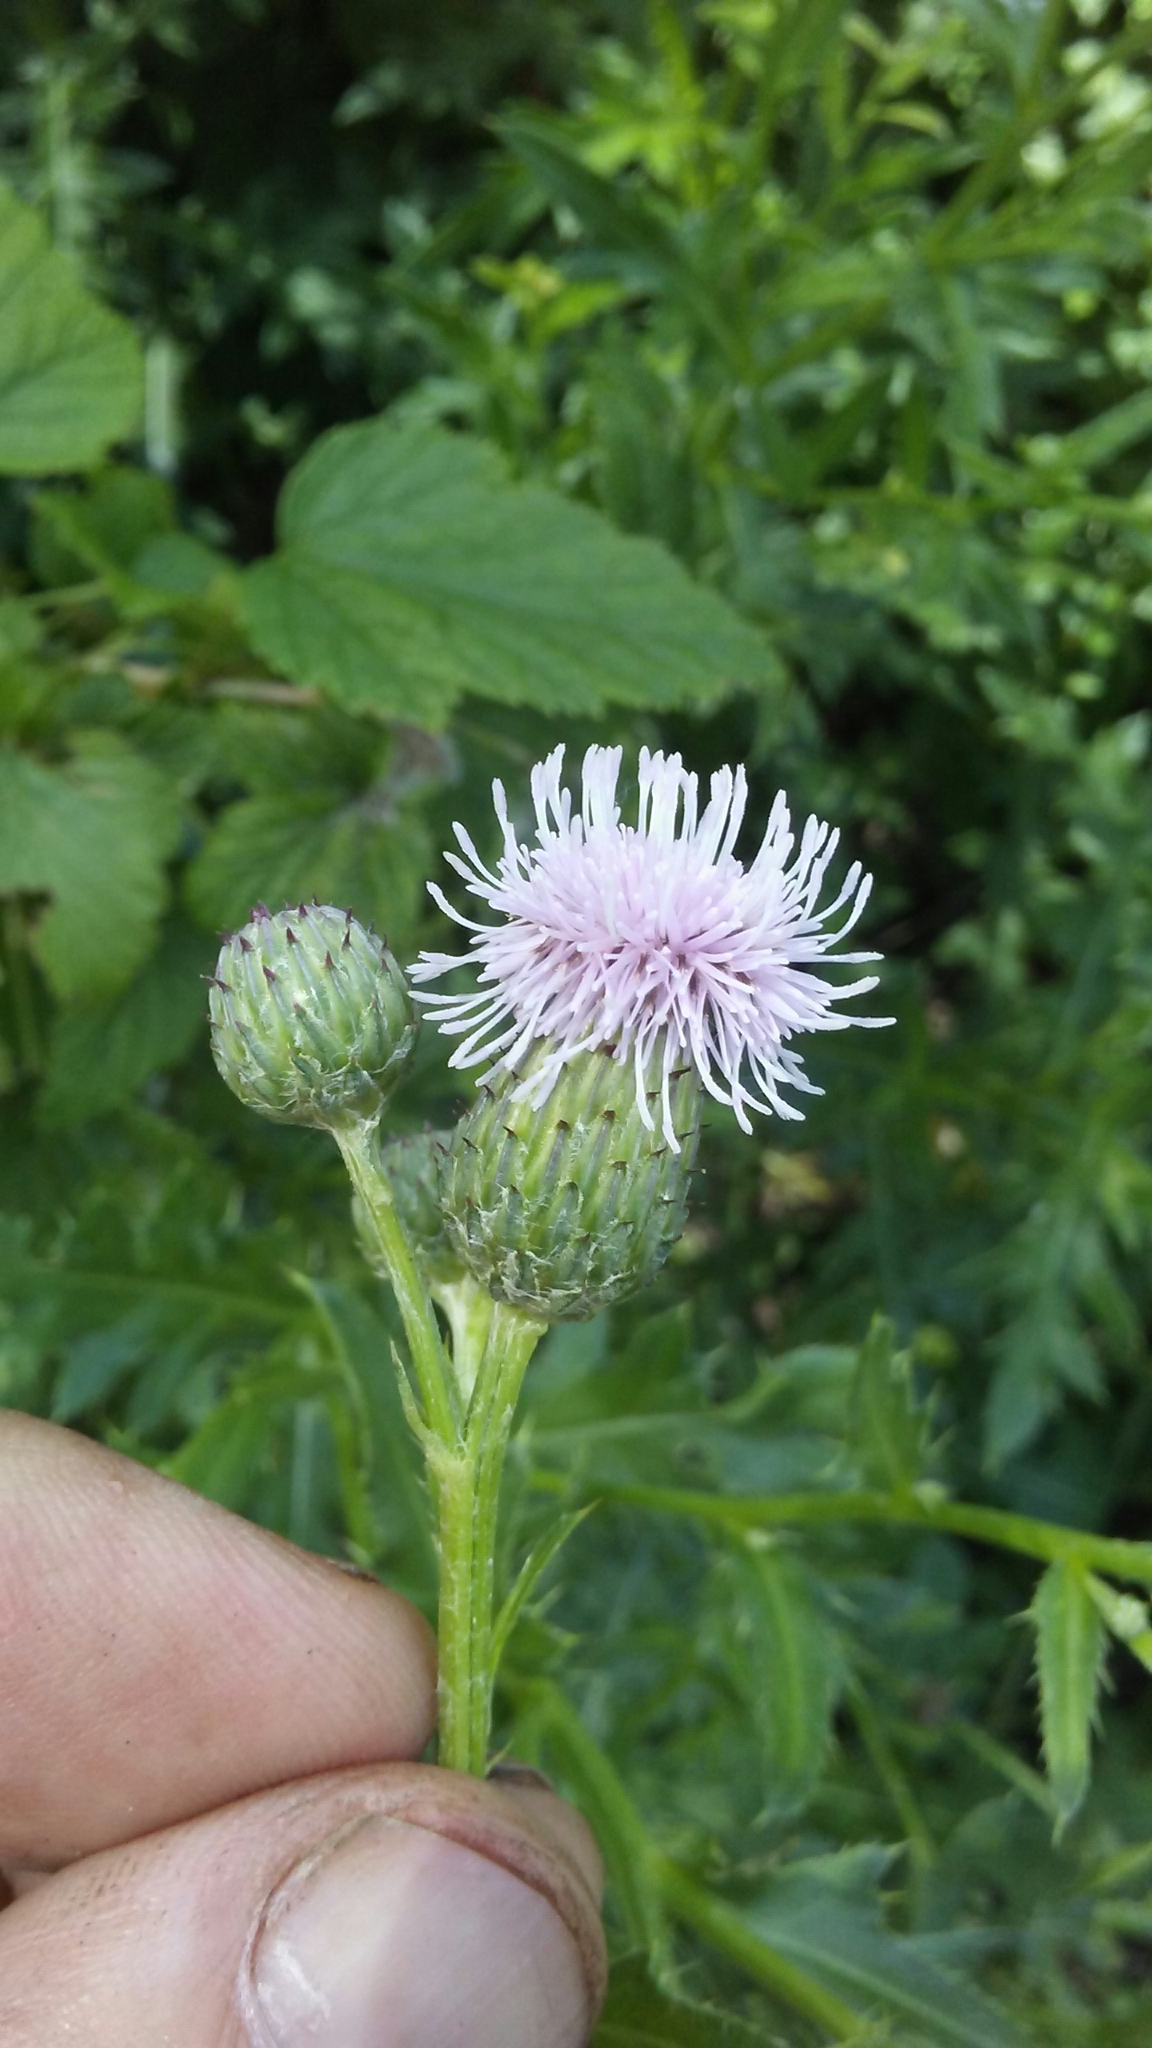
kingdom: Plantae
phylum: Tracheophyta
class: Magnoliopsida
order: Asterales
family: Asteraceae
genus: Cirsium
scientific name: Cirsium arvense
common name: Creeping thistle
